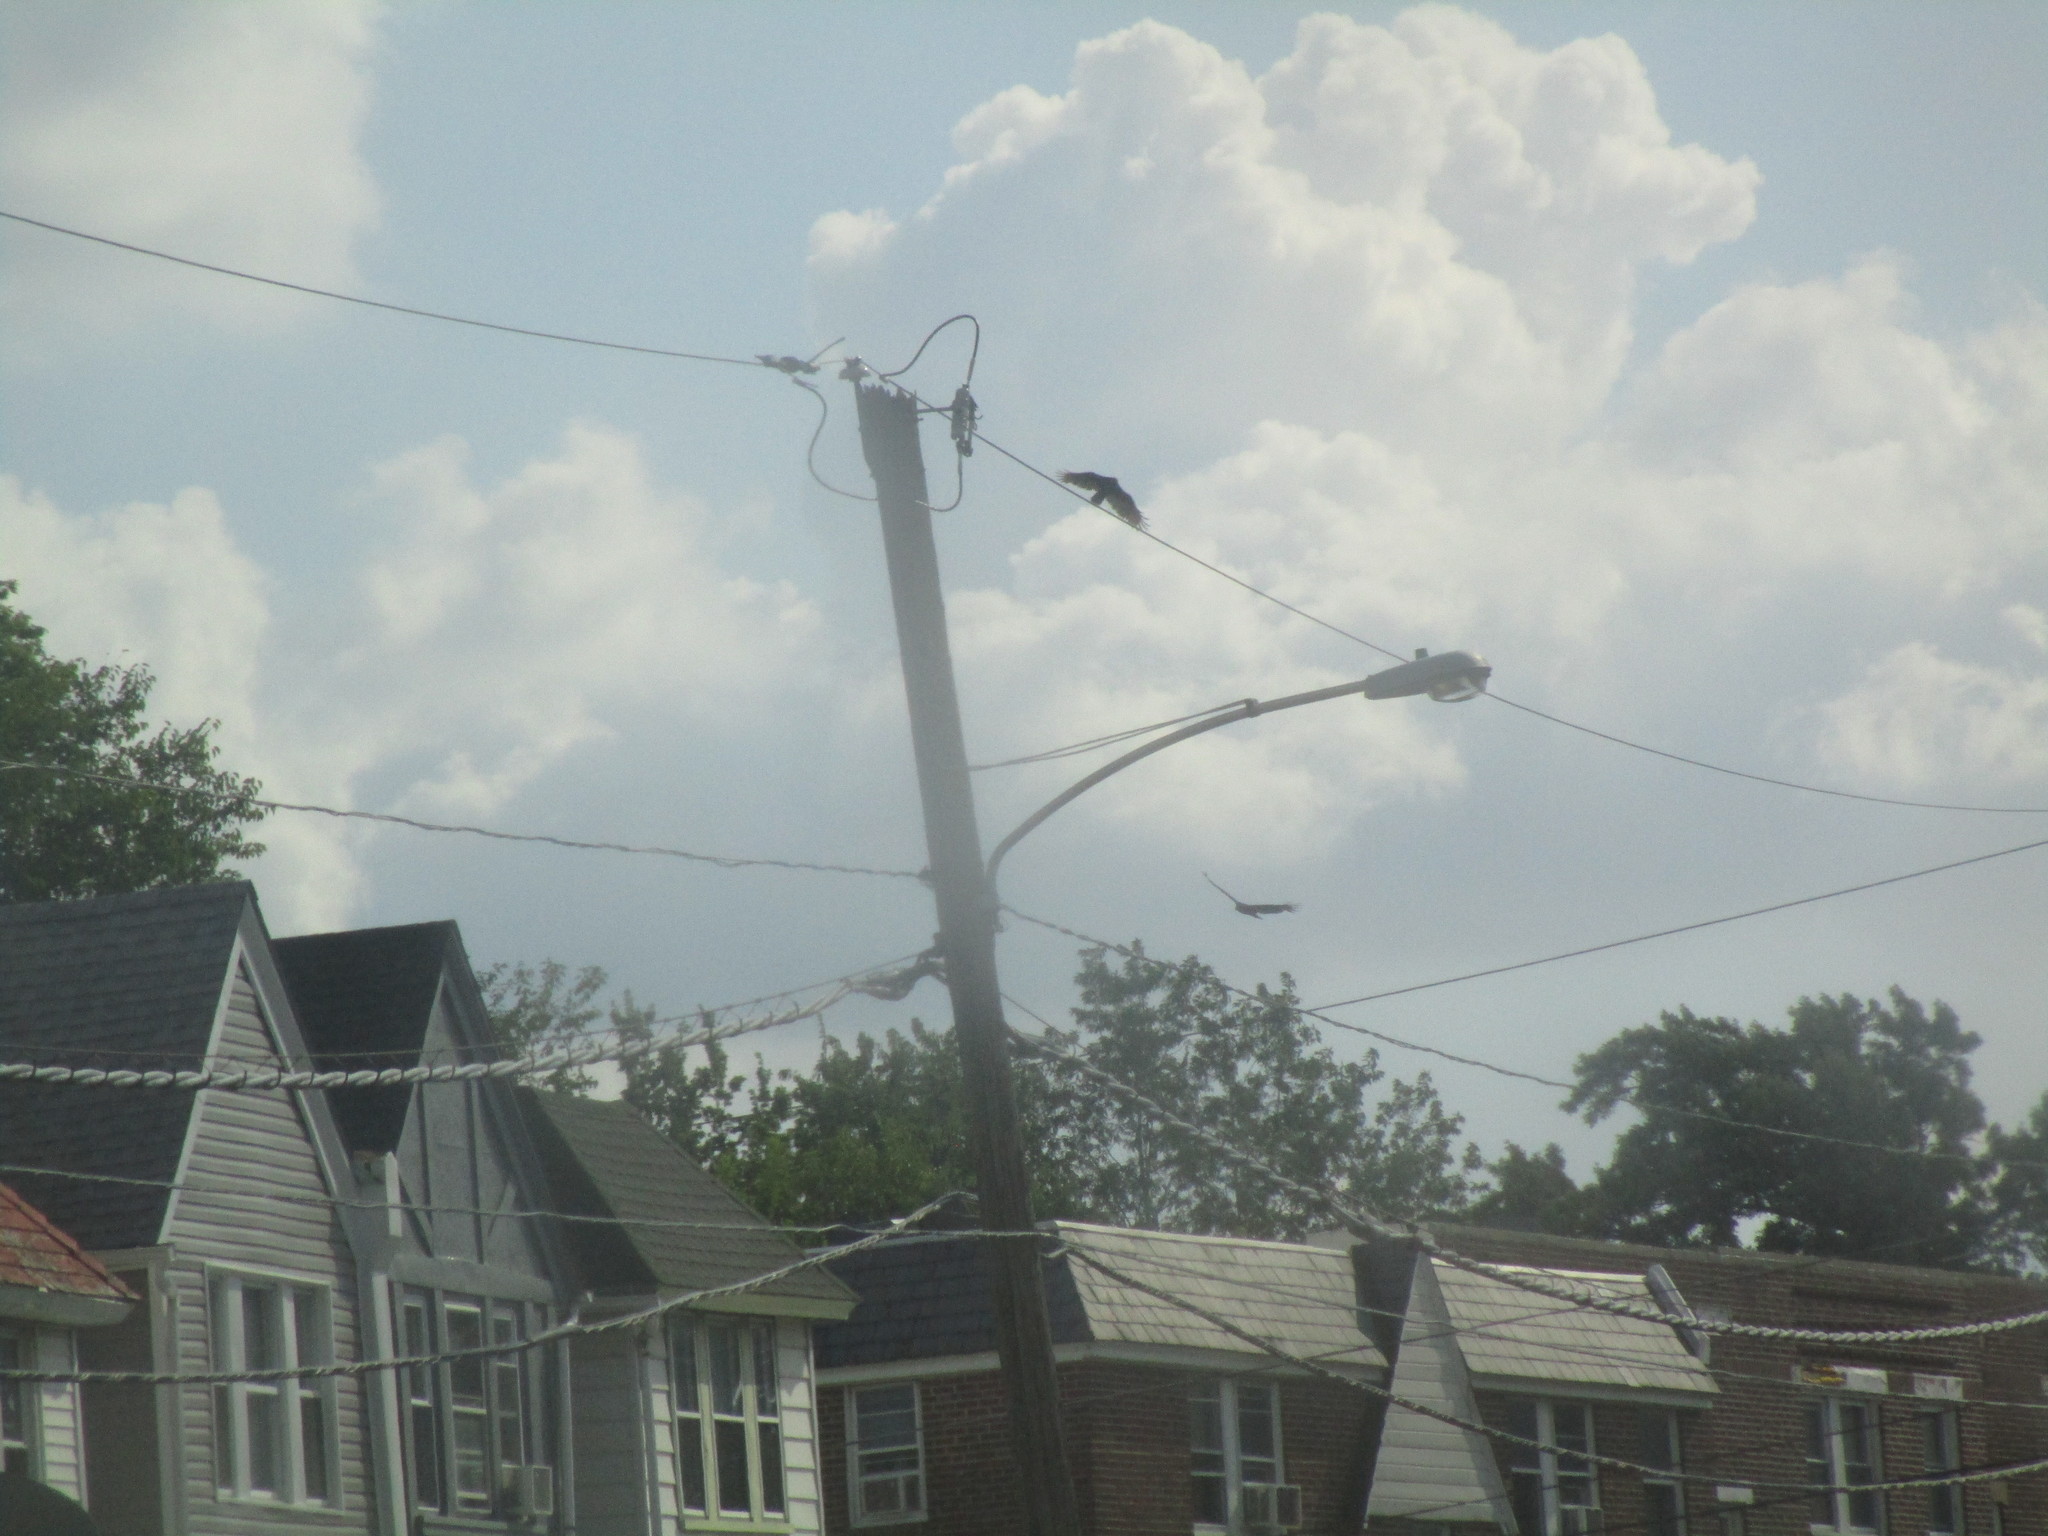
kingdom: Animalia
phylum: Chordata
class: Aves
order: Accipitriformes
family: Cathartidae
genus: Cathartes
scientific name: Cathartes aura
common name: Turkey vulture
